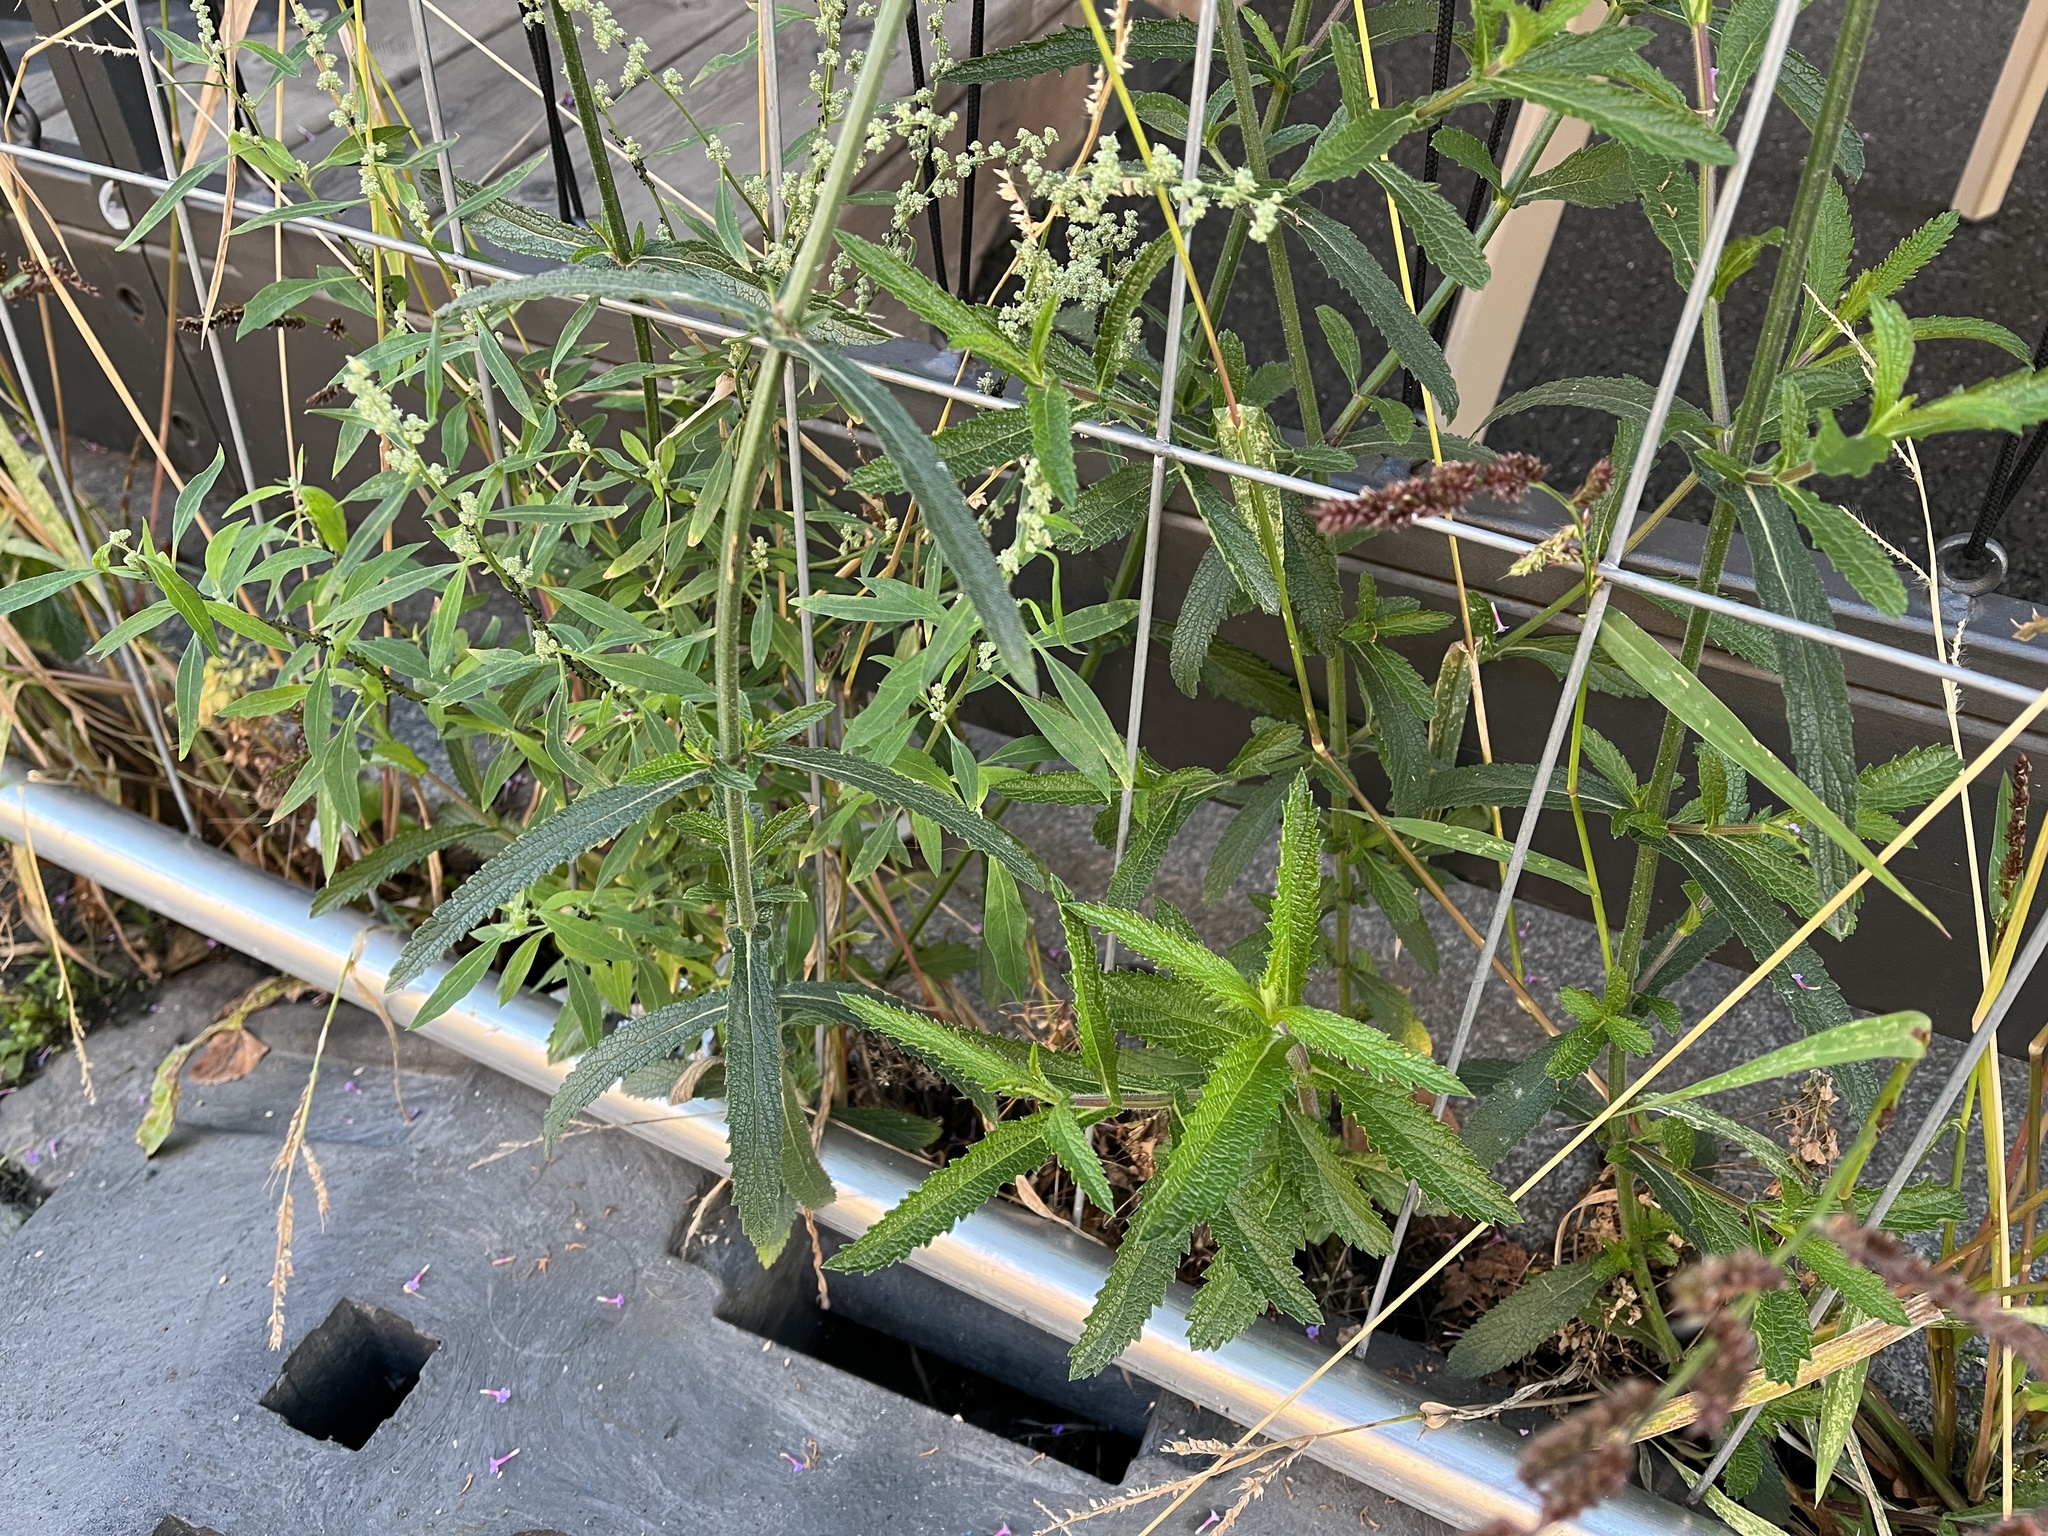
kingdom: Plantae
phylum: Tracheophyta
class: Magnoliopsida
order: Lamiales
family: Verbenaceae
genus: Verbena
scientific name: Verbena bonariensis
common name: Purpletop vervain
